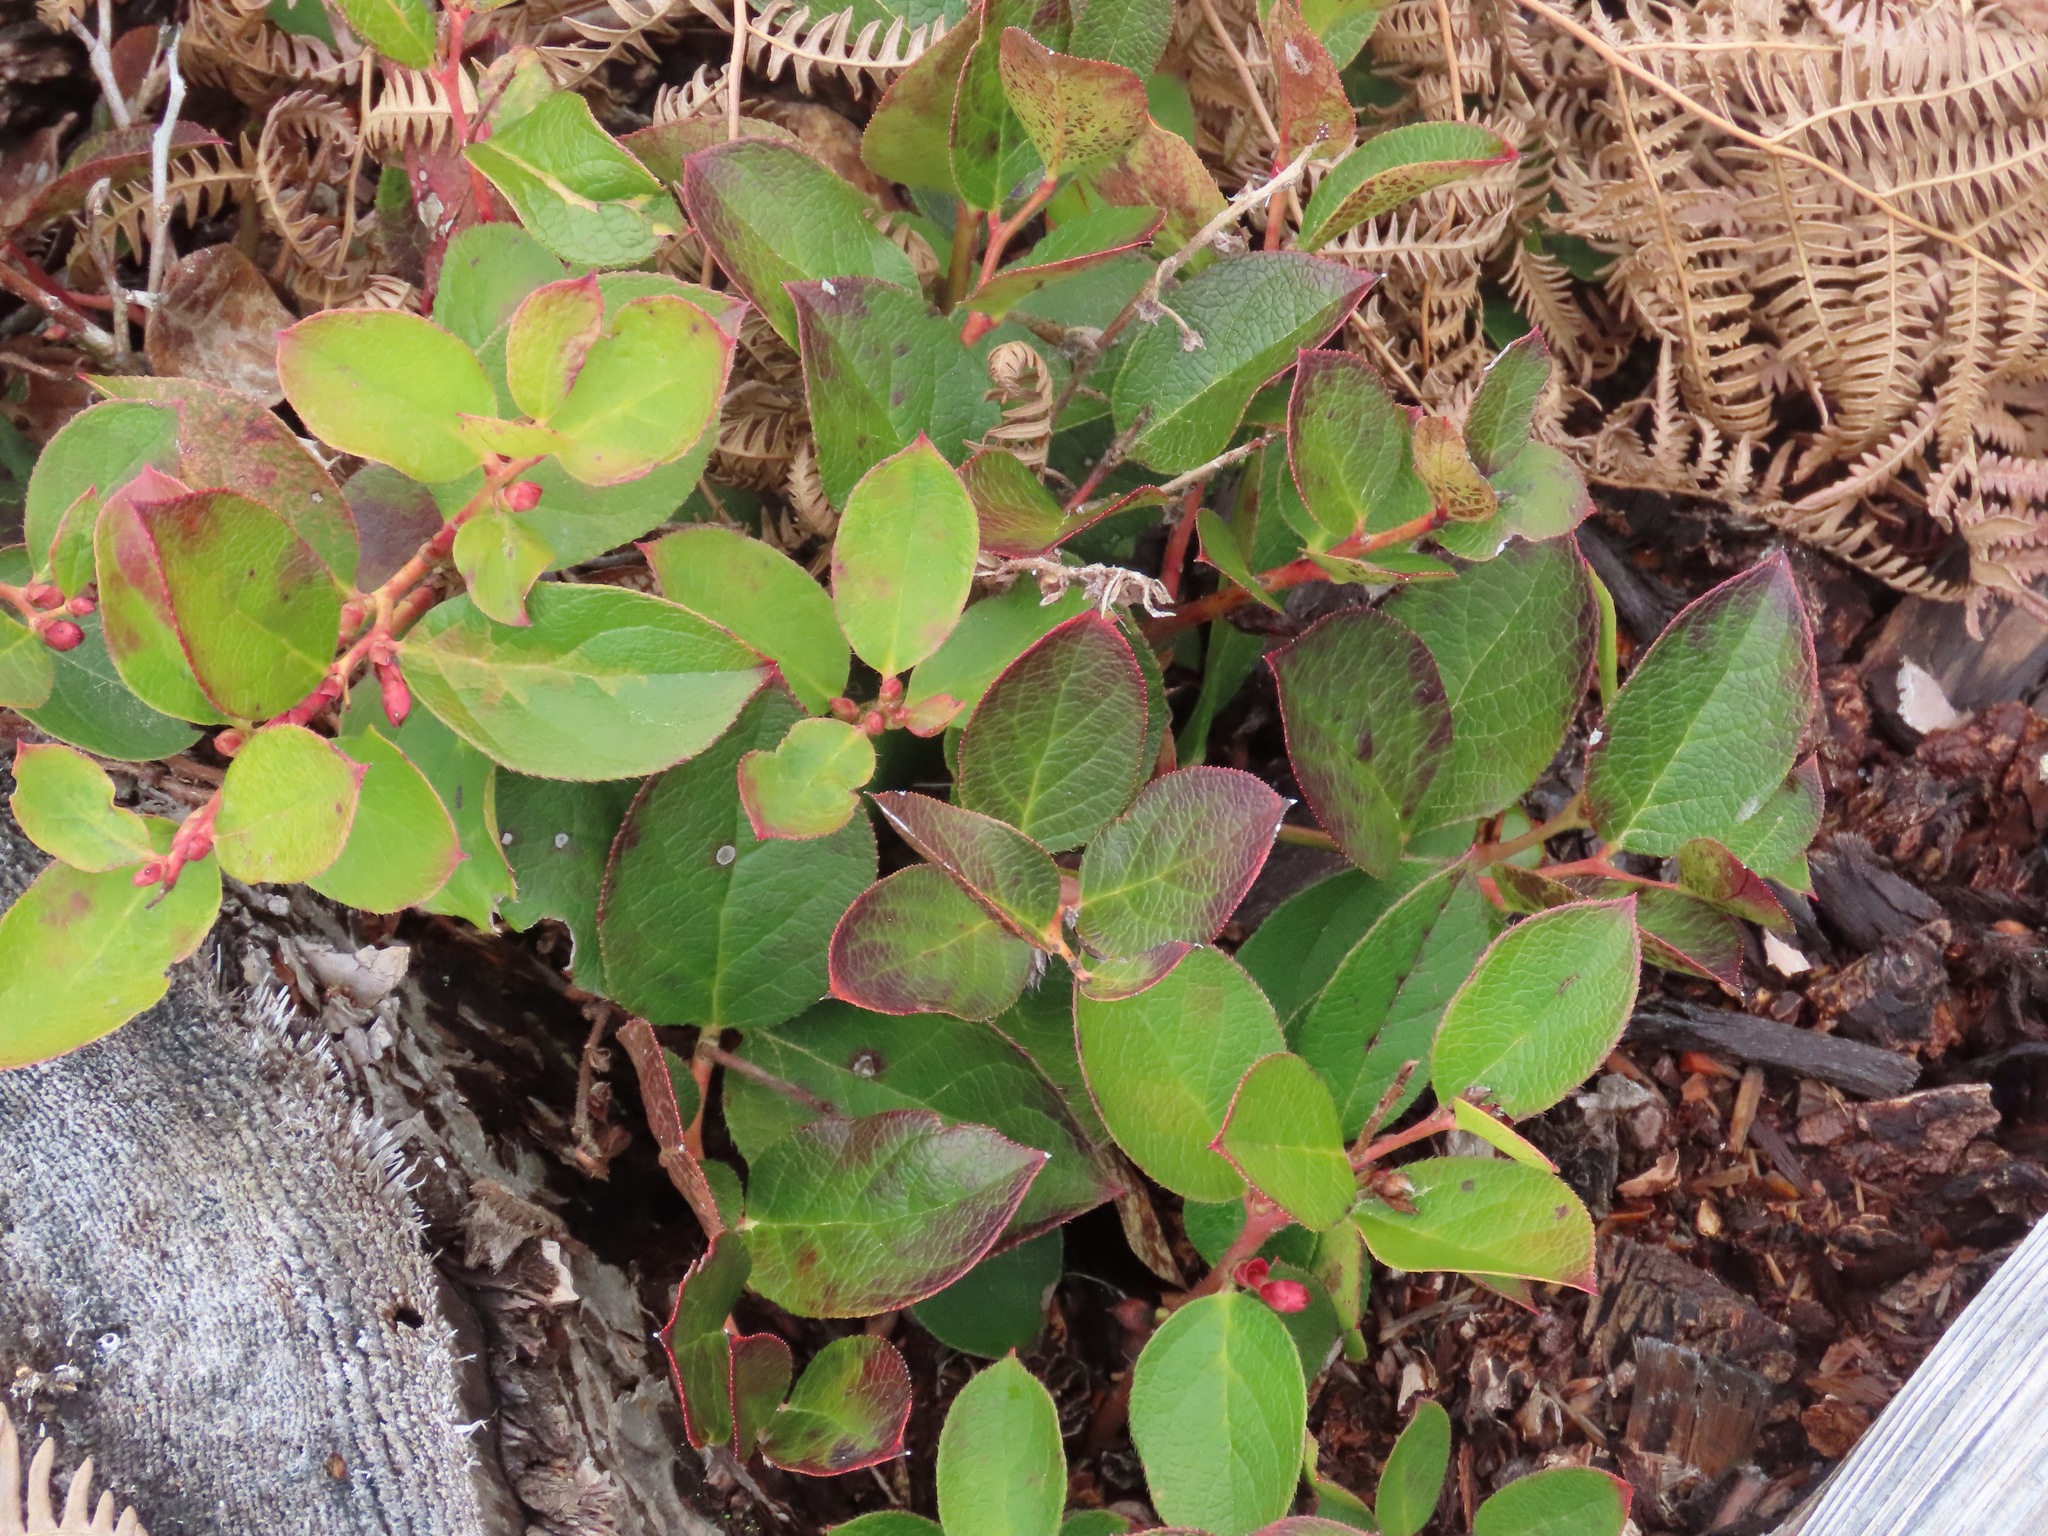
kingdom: Plantae
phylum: Tracheophyta
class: Magnoliopsida
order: Ericales
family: Ericaceae
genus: Gaultheria
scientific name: Gaultheria shallon
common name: Shallon
